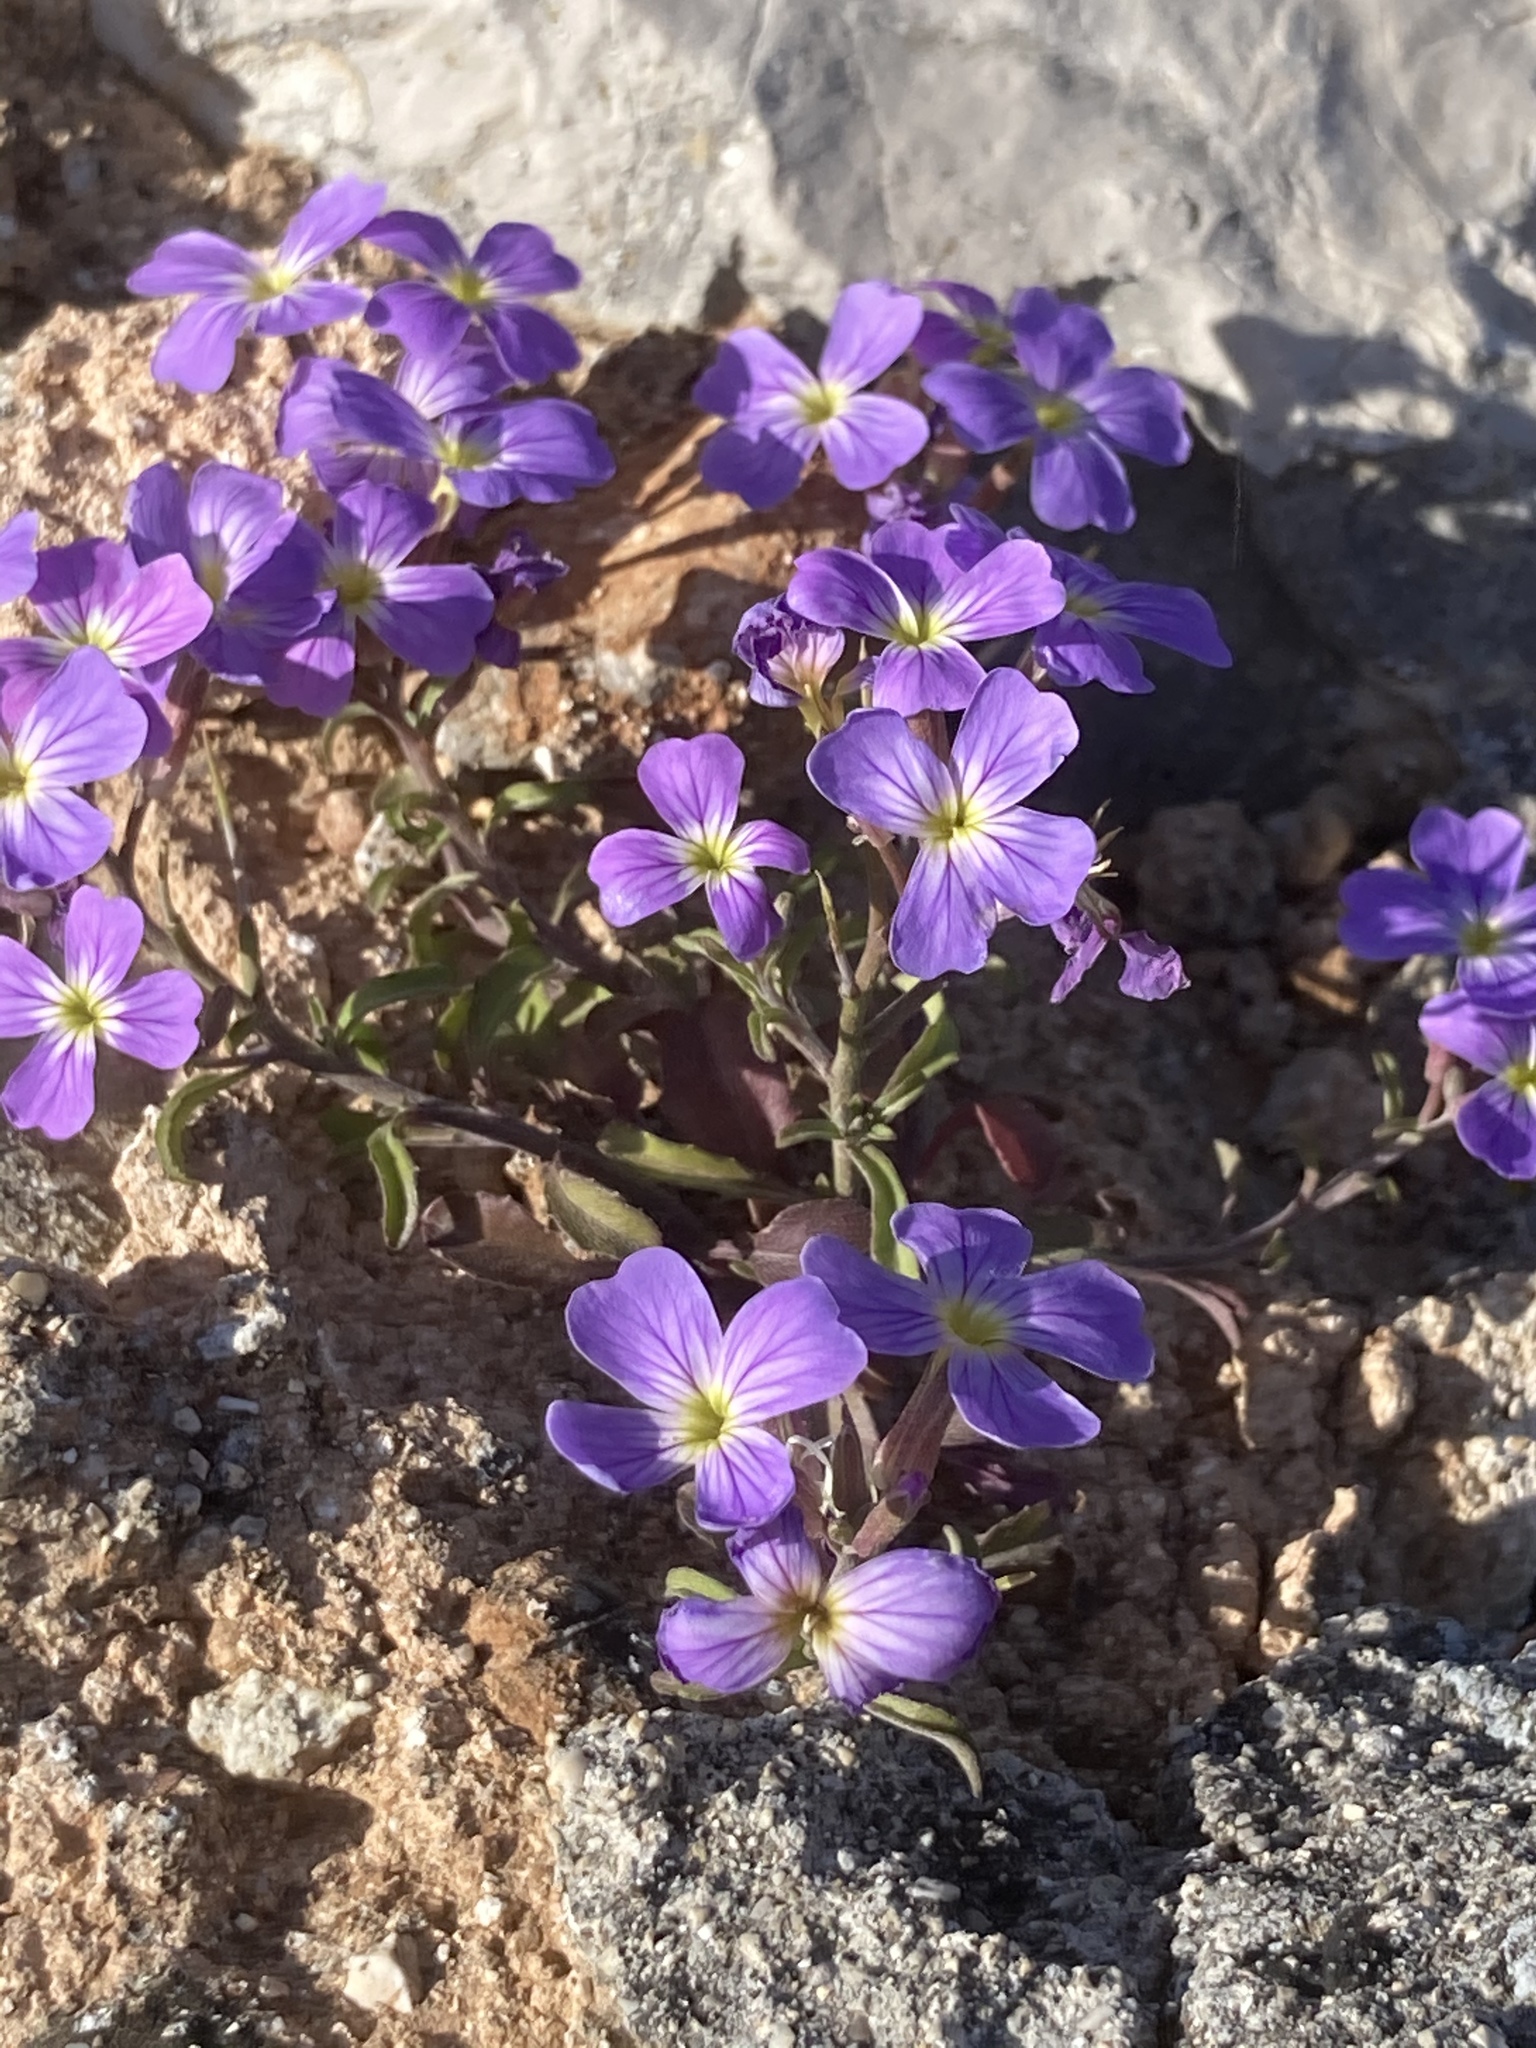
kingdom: Plantae
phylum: Tracheophyta
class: Magnoliopsida
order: Brassicales
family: Brassicaceae
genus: Malcolmia
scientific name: Malcolmia maritima
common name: Virginia stock
